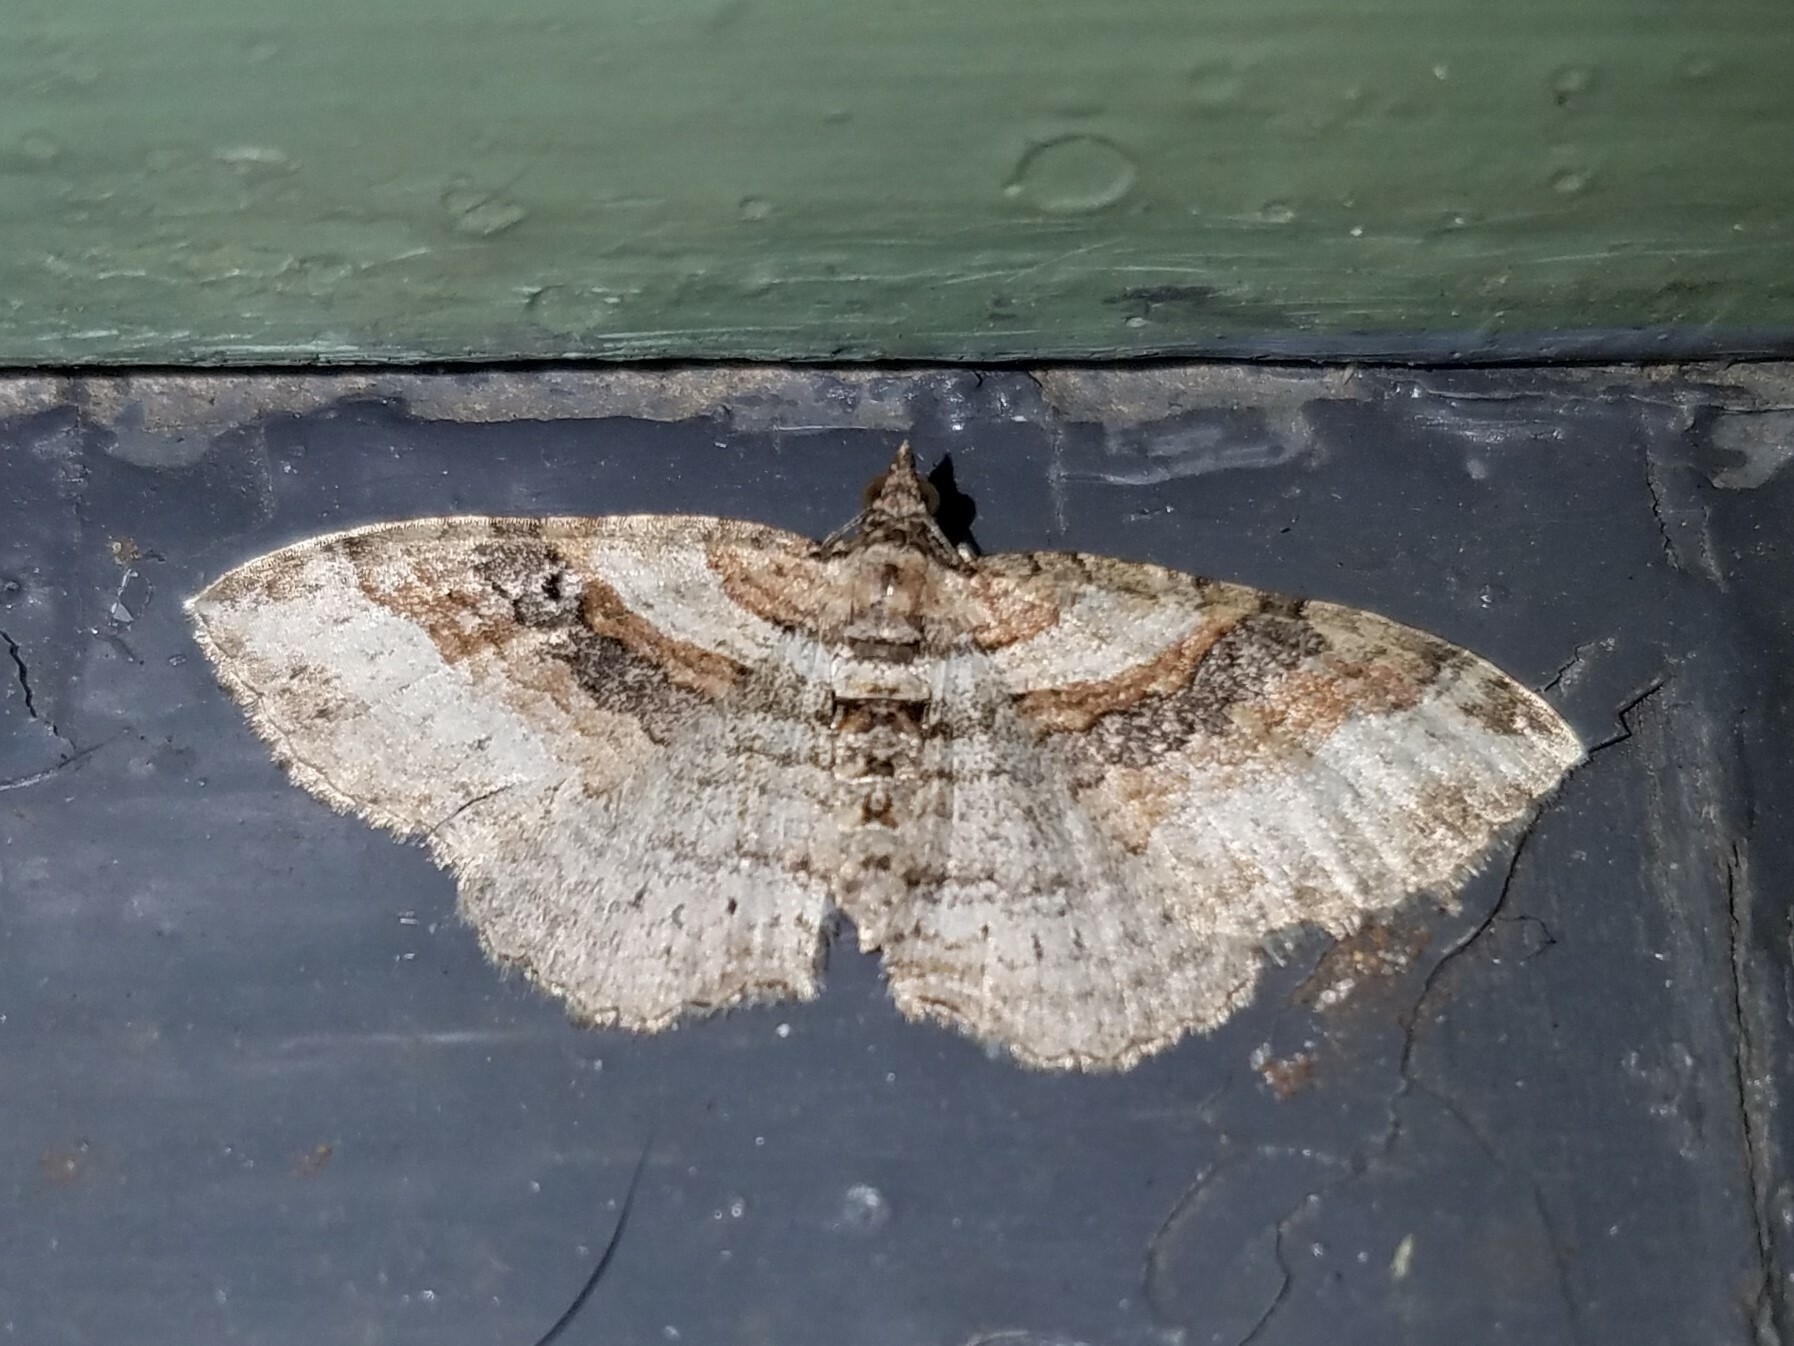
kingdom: Animalia
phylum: Arthropoda
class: Insecta
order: Lepidoptera
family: Geometridae
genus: Costaconvexa
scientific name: Costaconvexa centrostrigaria
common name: Bent-line carpet
